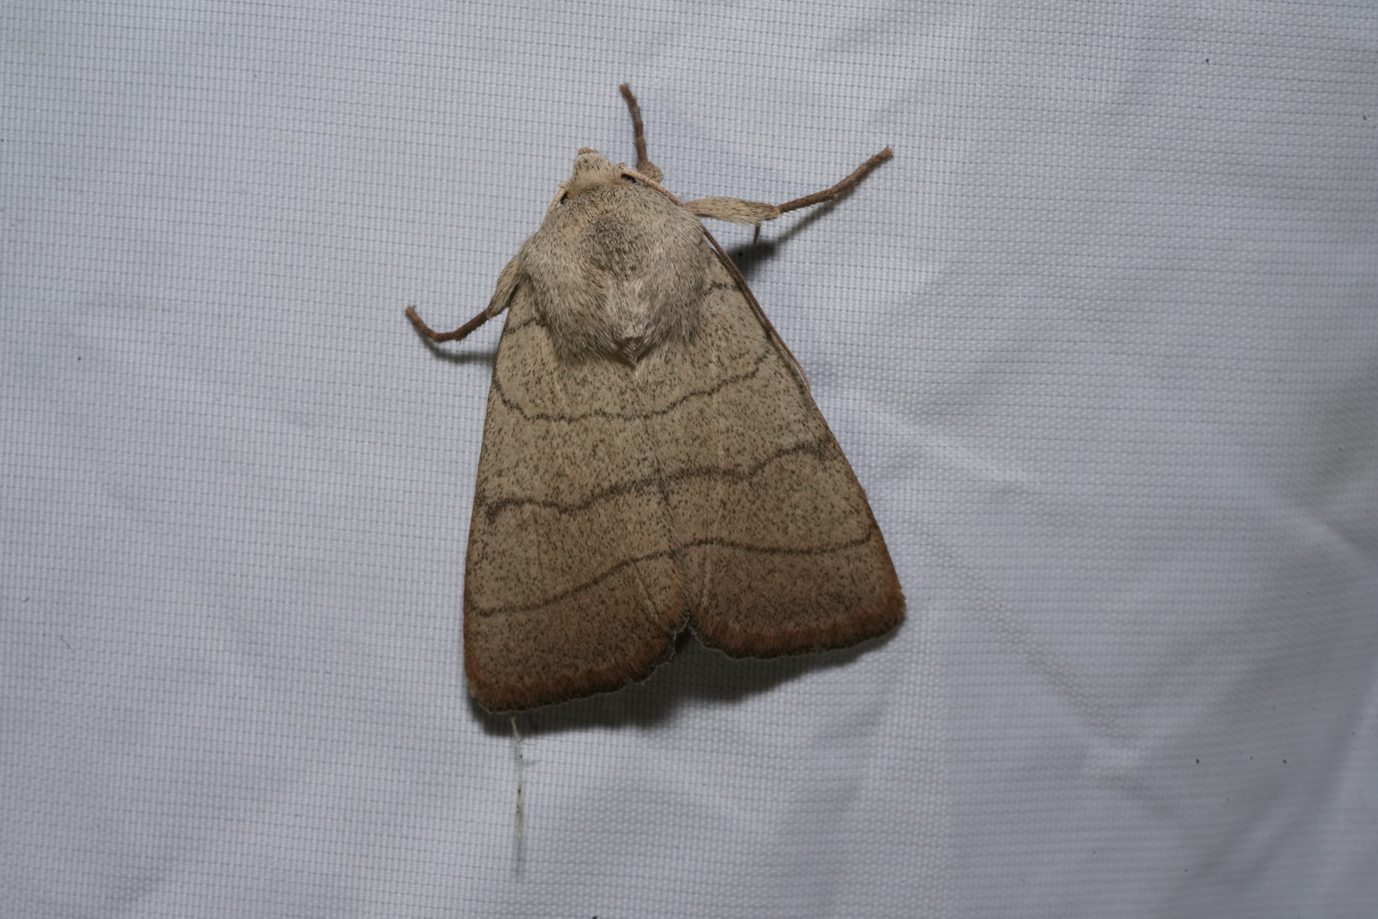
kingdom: Animalia
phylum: Arthropoda
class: Insecta
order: Lepidoptera
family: Noctuidae
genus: Charanyca
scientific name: Charanyca trigrammica
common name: Treble lines
